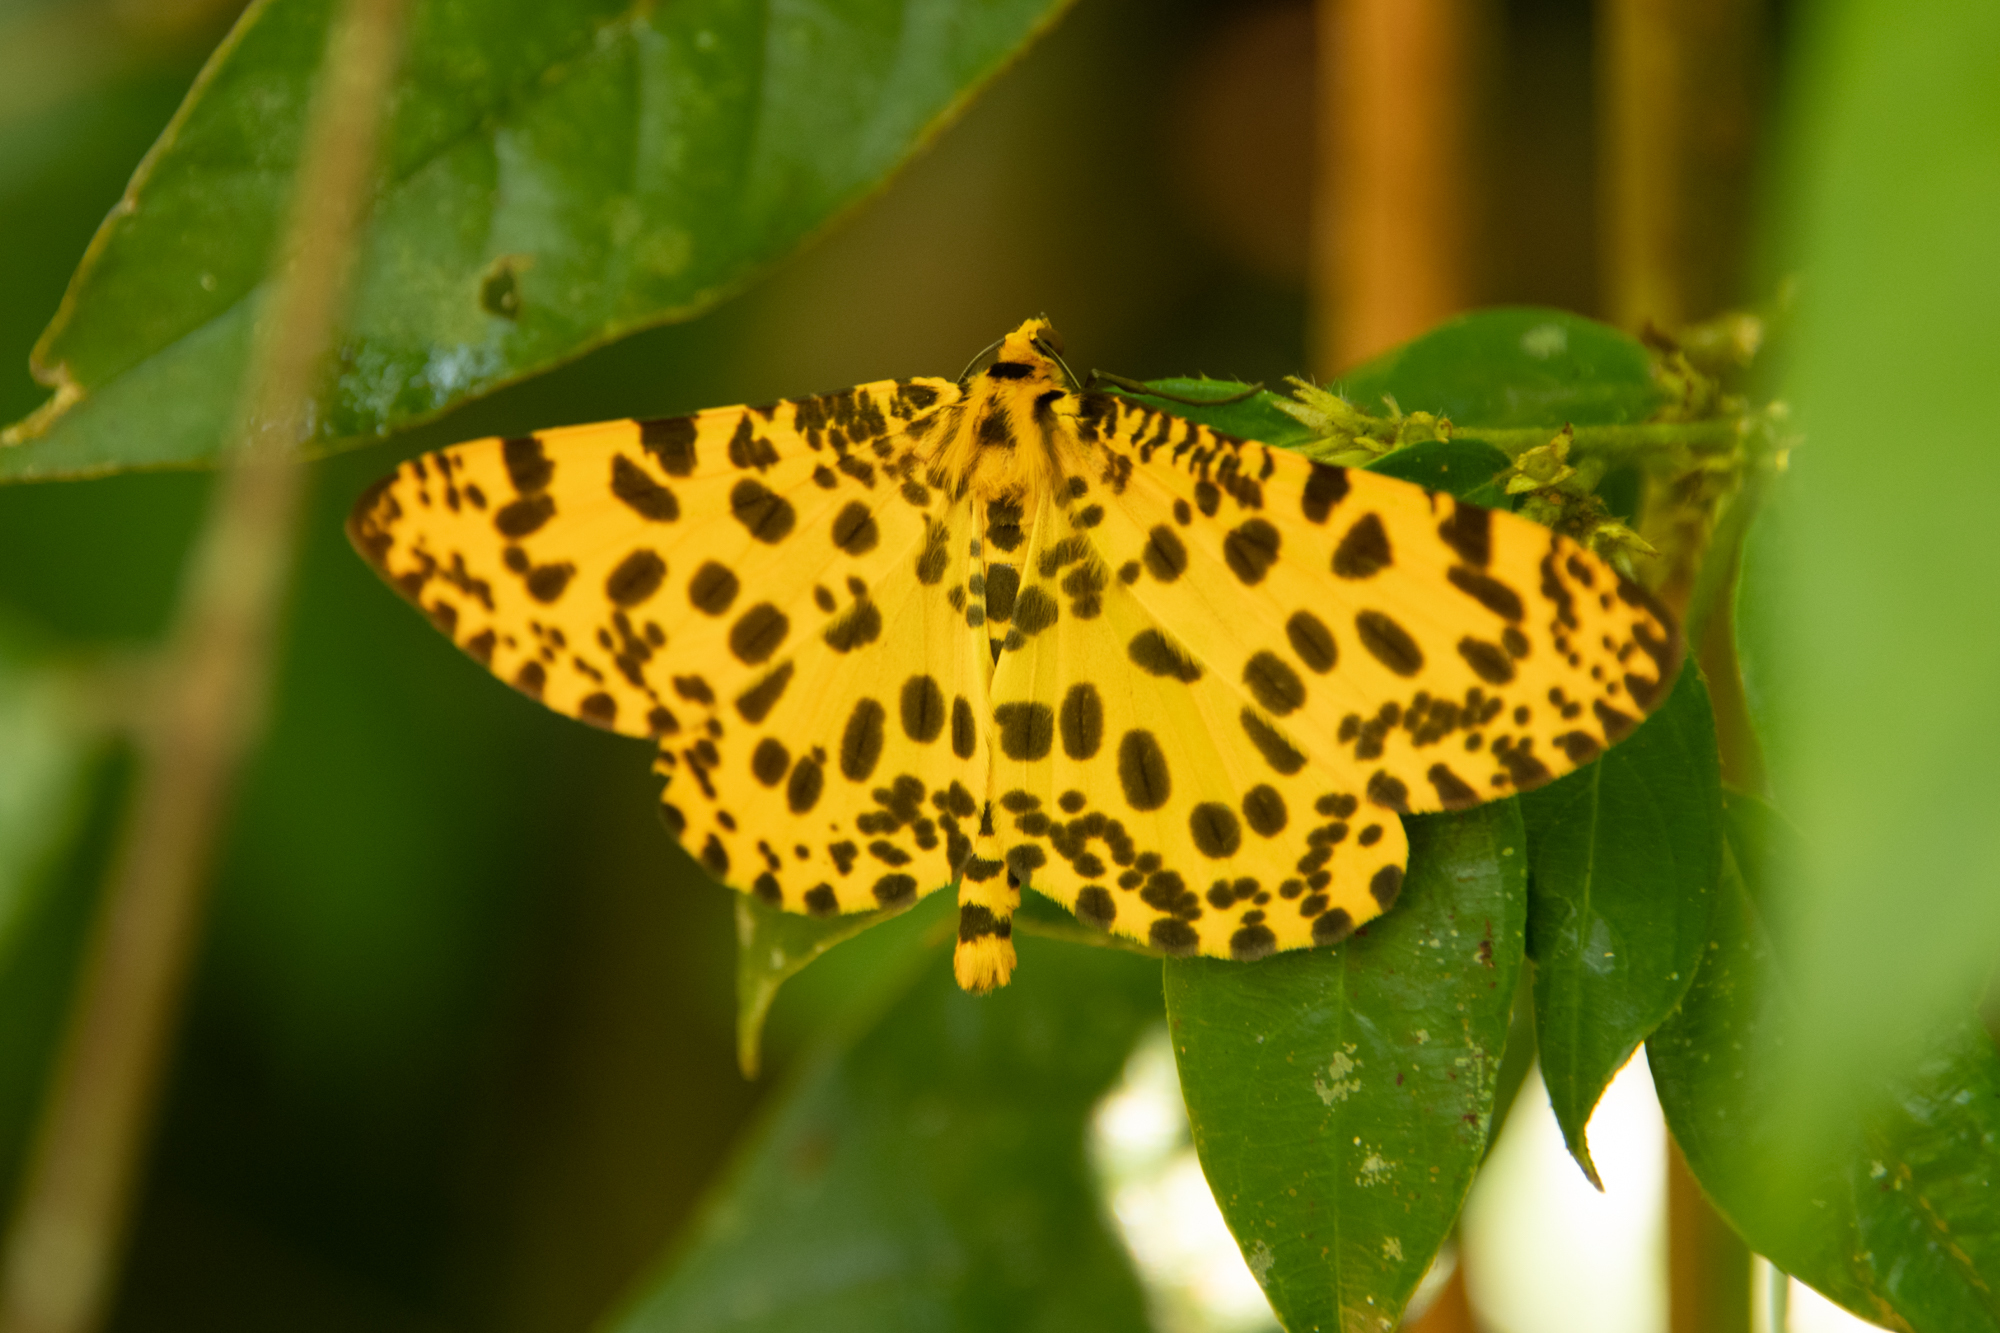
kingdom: Animalia
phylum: Arthropoda
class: Insecta
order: Lepidoptera
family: Geometridae
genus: Obeidia
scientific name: Obeidia Epobeidia tigrata
